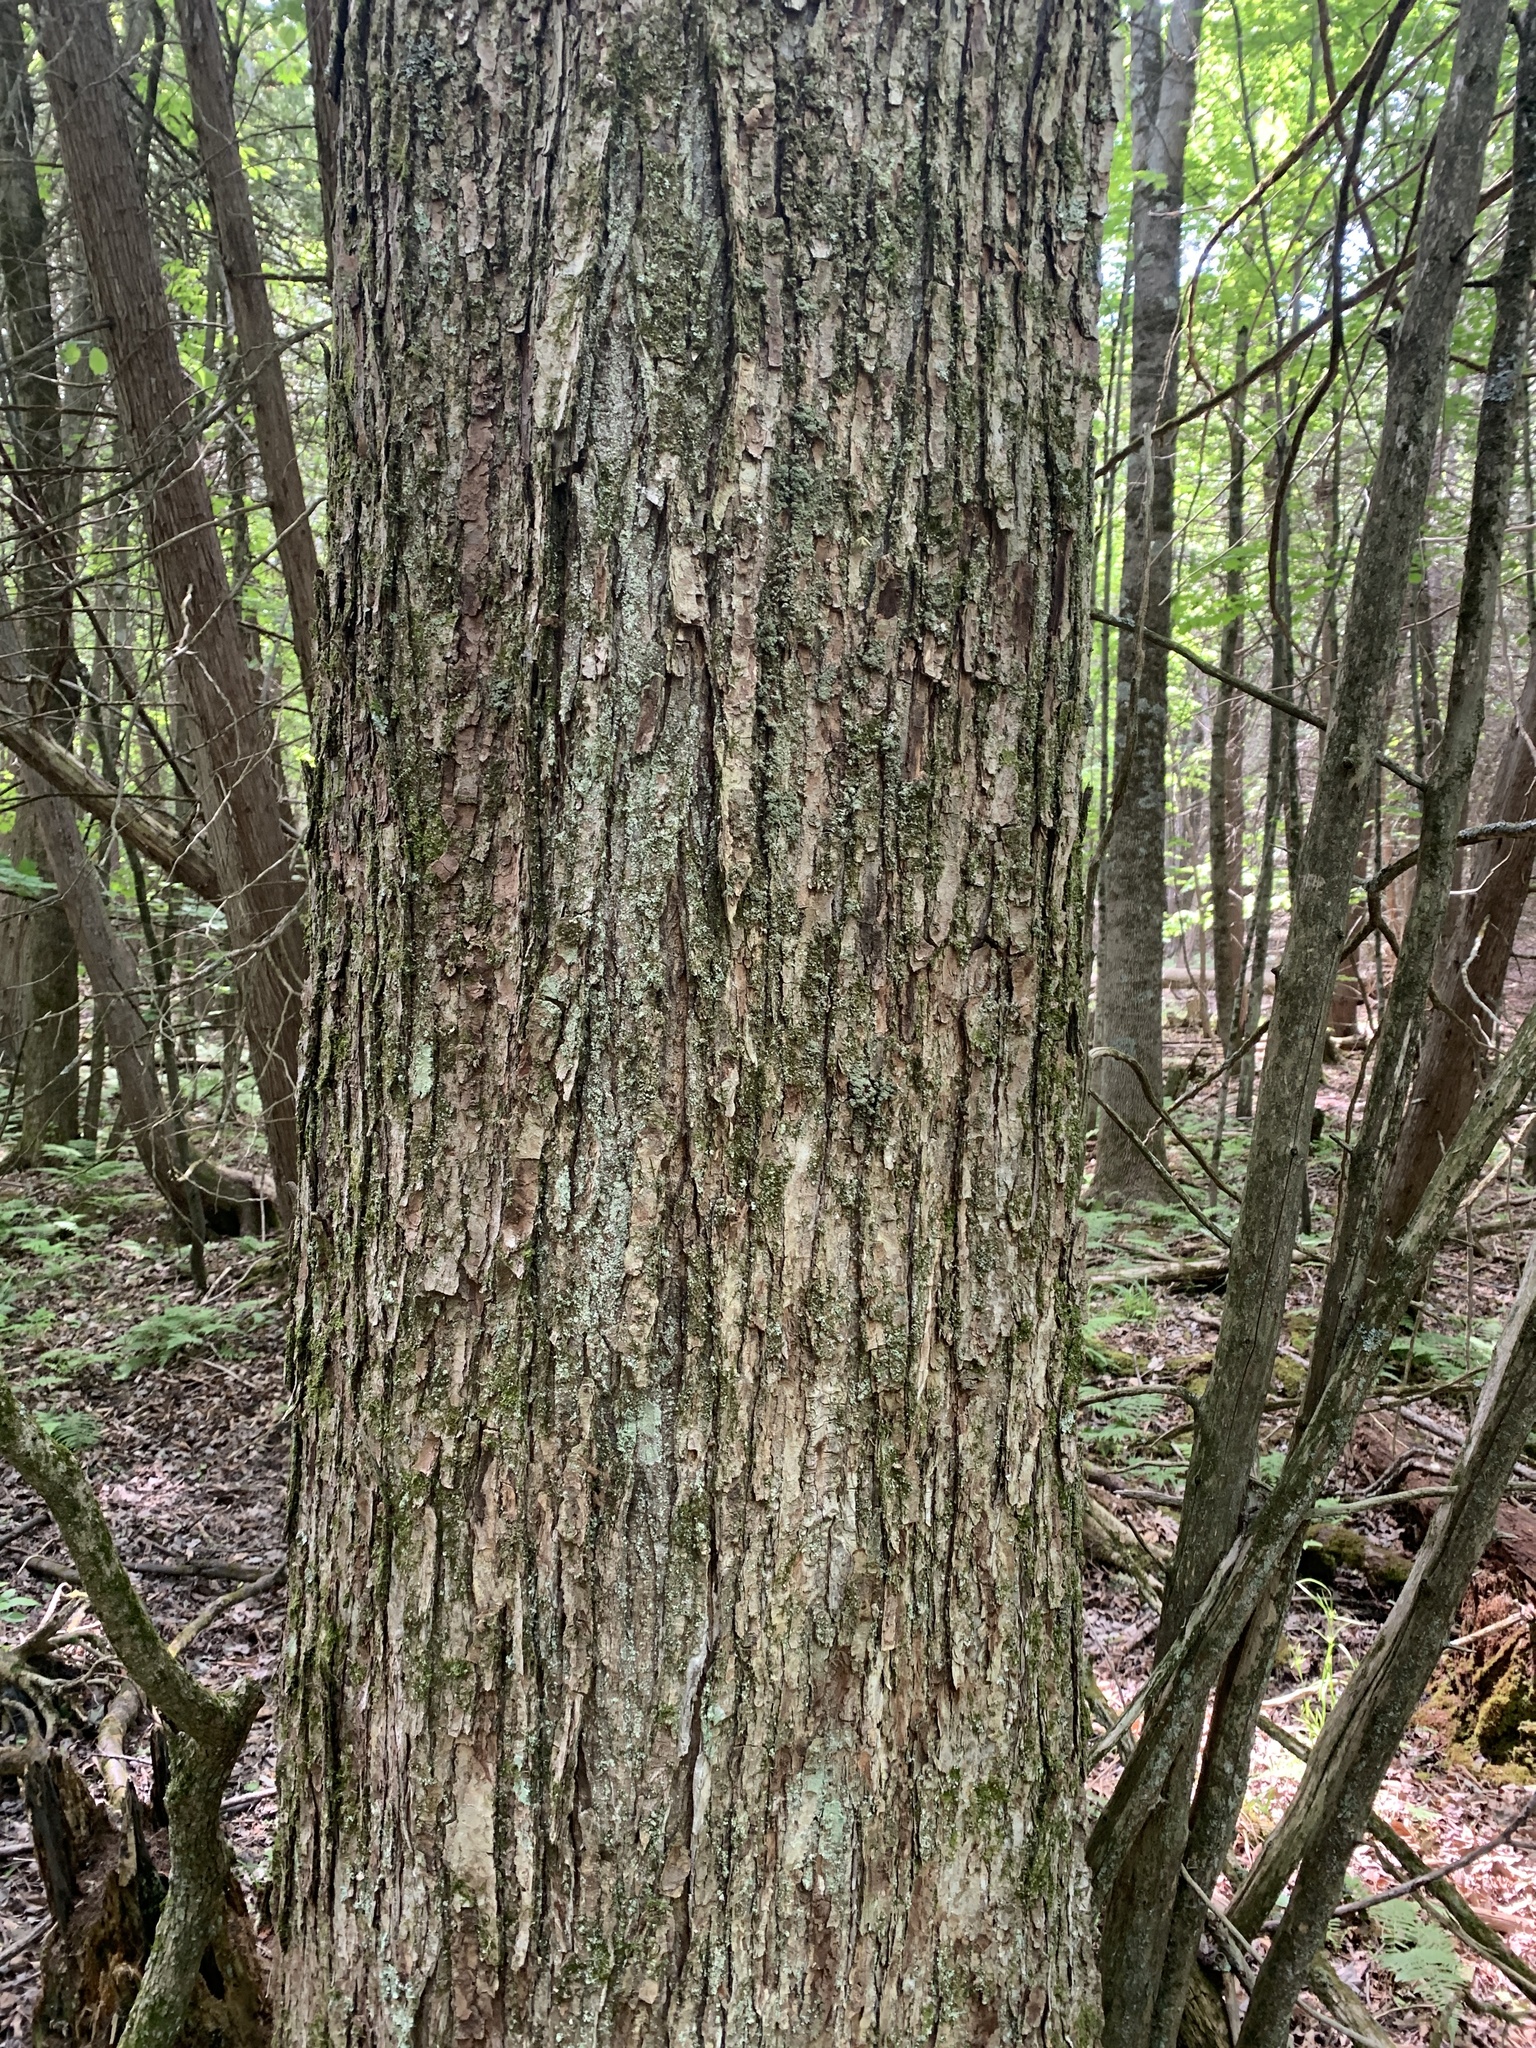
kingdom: Plantae
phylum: Tracheophyta
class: Magnoliopsida
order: Sapindales
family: Sapindaceae
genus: Acer
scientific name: Acer rubrum
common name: Red maple
